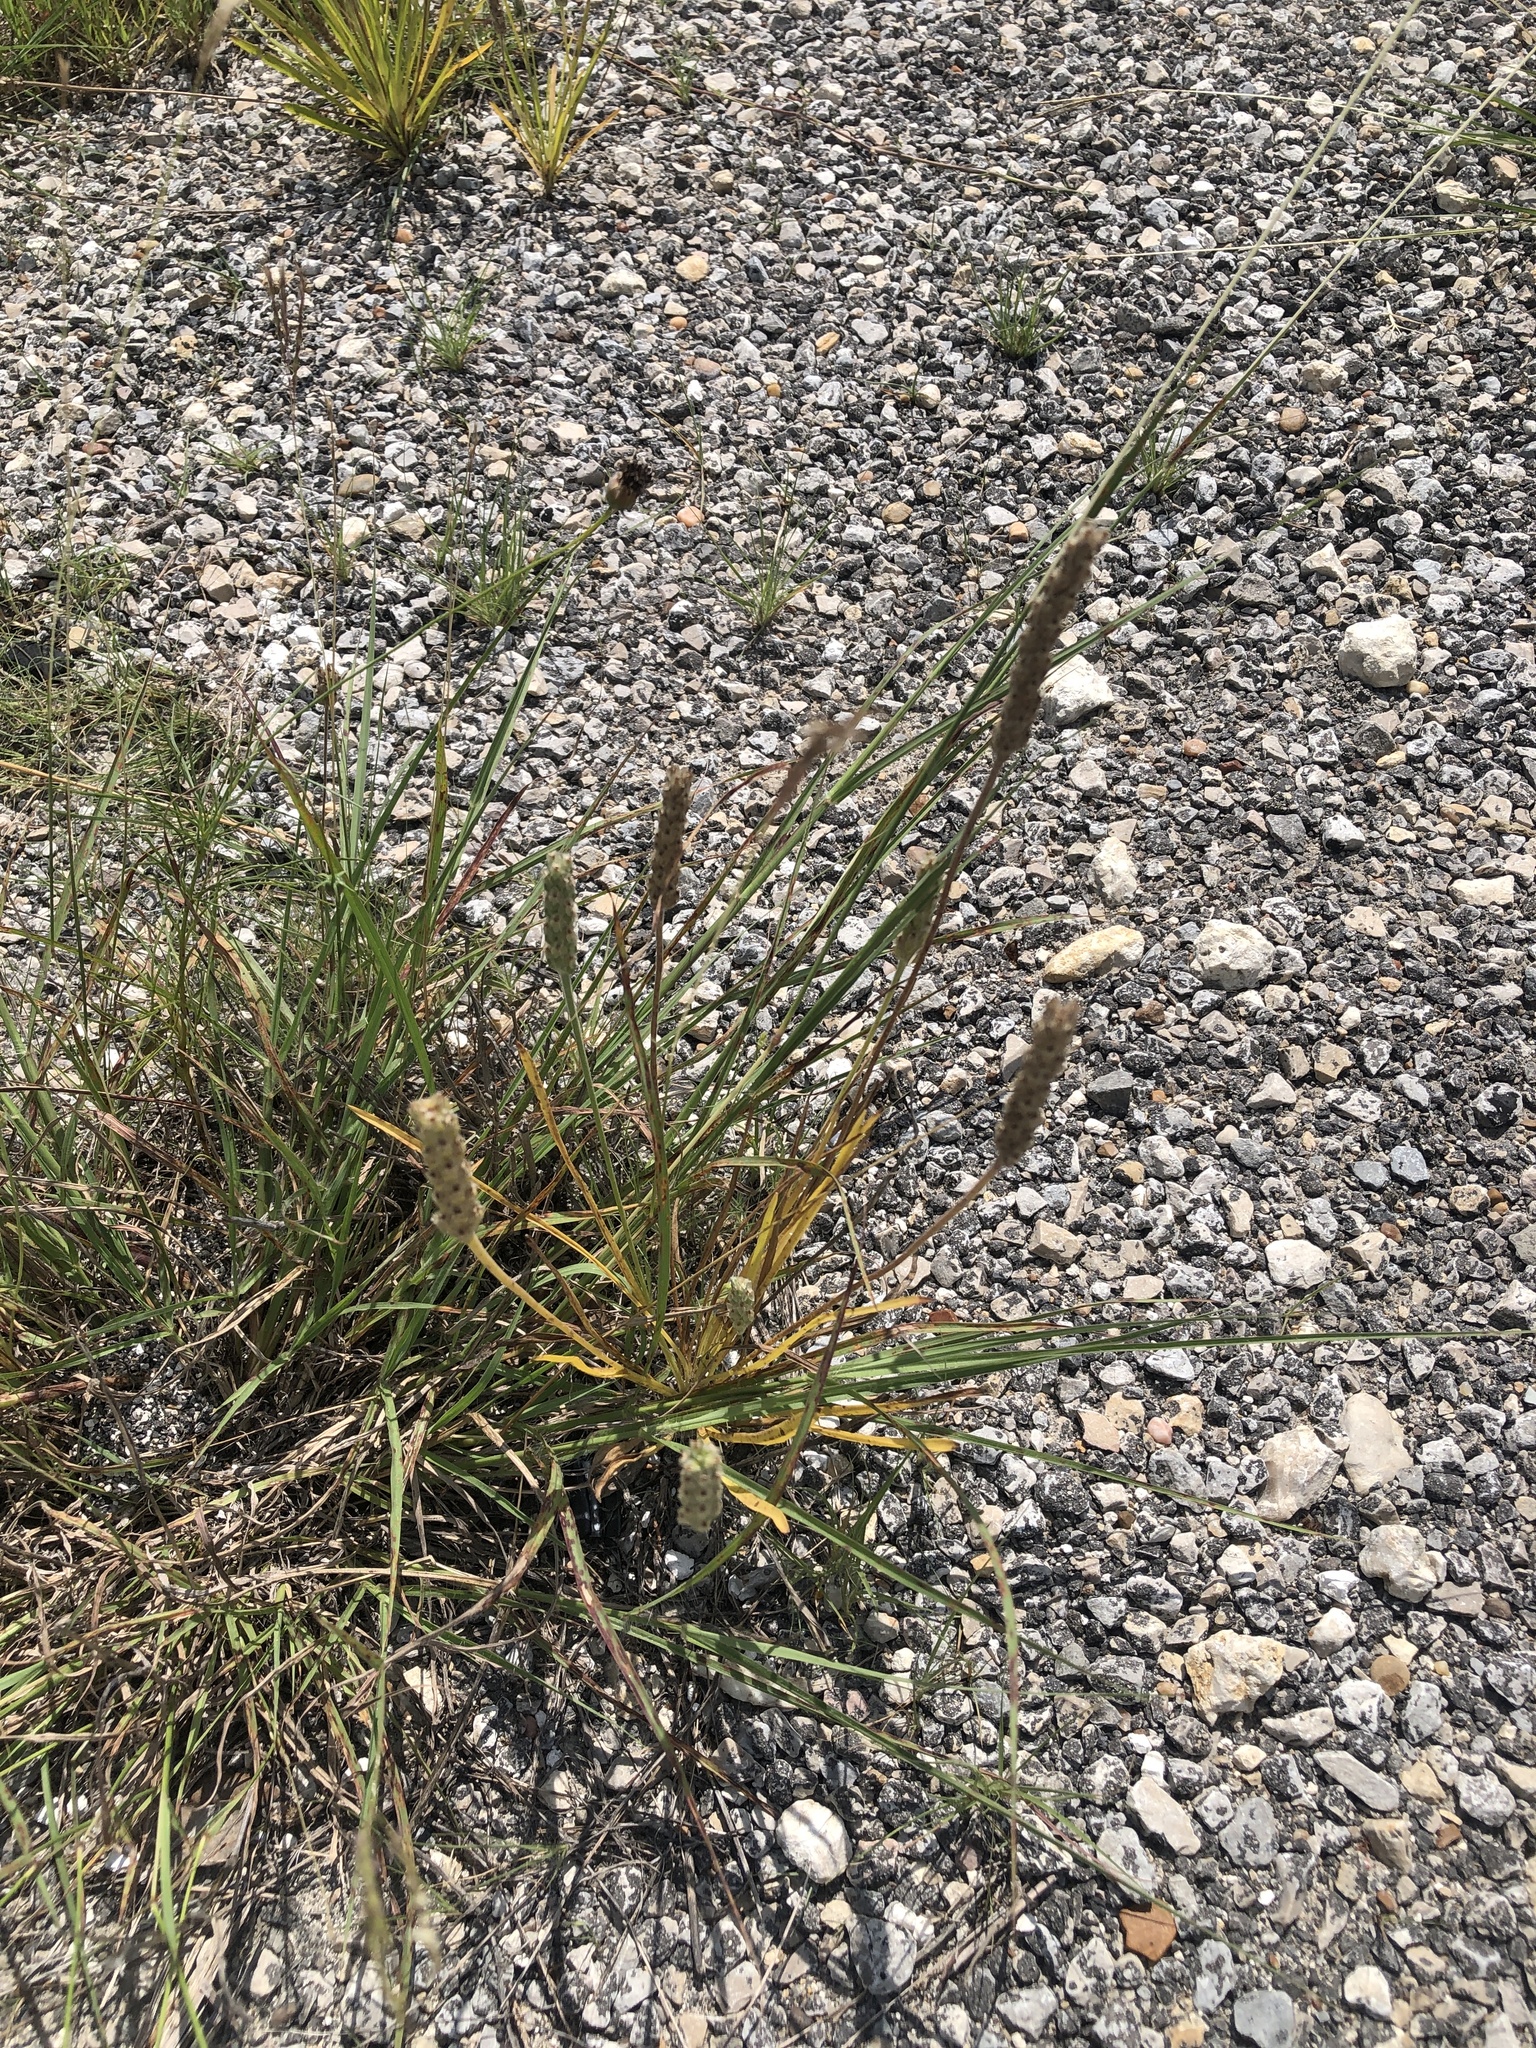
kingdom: Plantae
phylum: Tracheophyta
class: Magnoliopsida
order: Lamiales
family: Plantaginaceae
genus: Plantago
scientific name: Plantago wrightiana
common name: Wright's plantain
